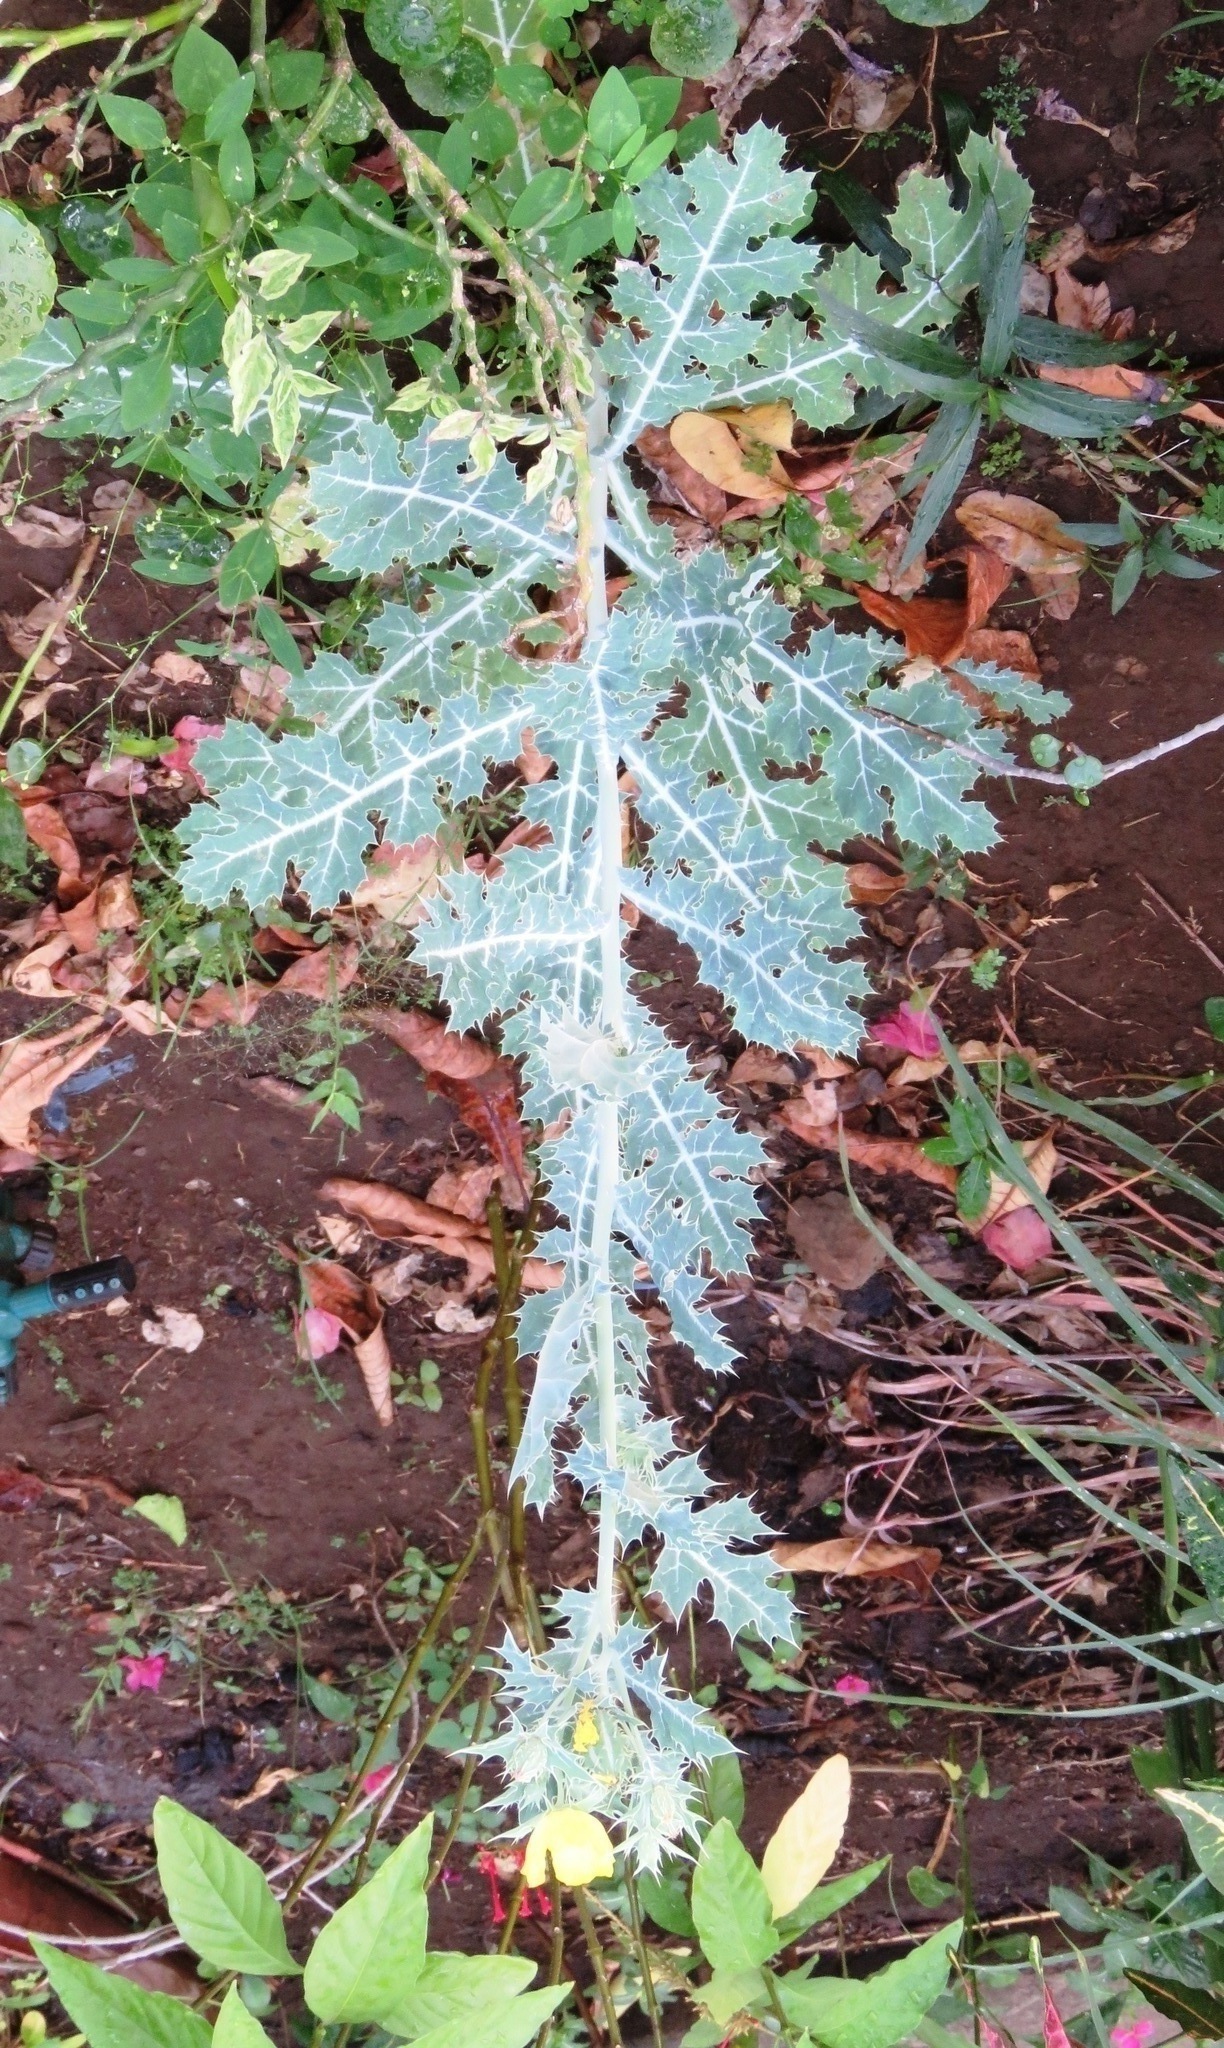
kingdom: Plantae
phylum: Tracheophyta
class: Magnoliopsida
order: Ranunculales
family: Papaveraceae
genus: Argemone
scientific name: Argemone mexicana
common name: Mexican poppy
